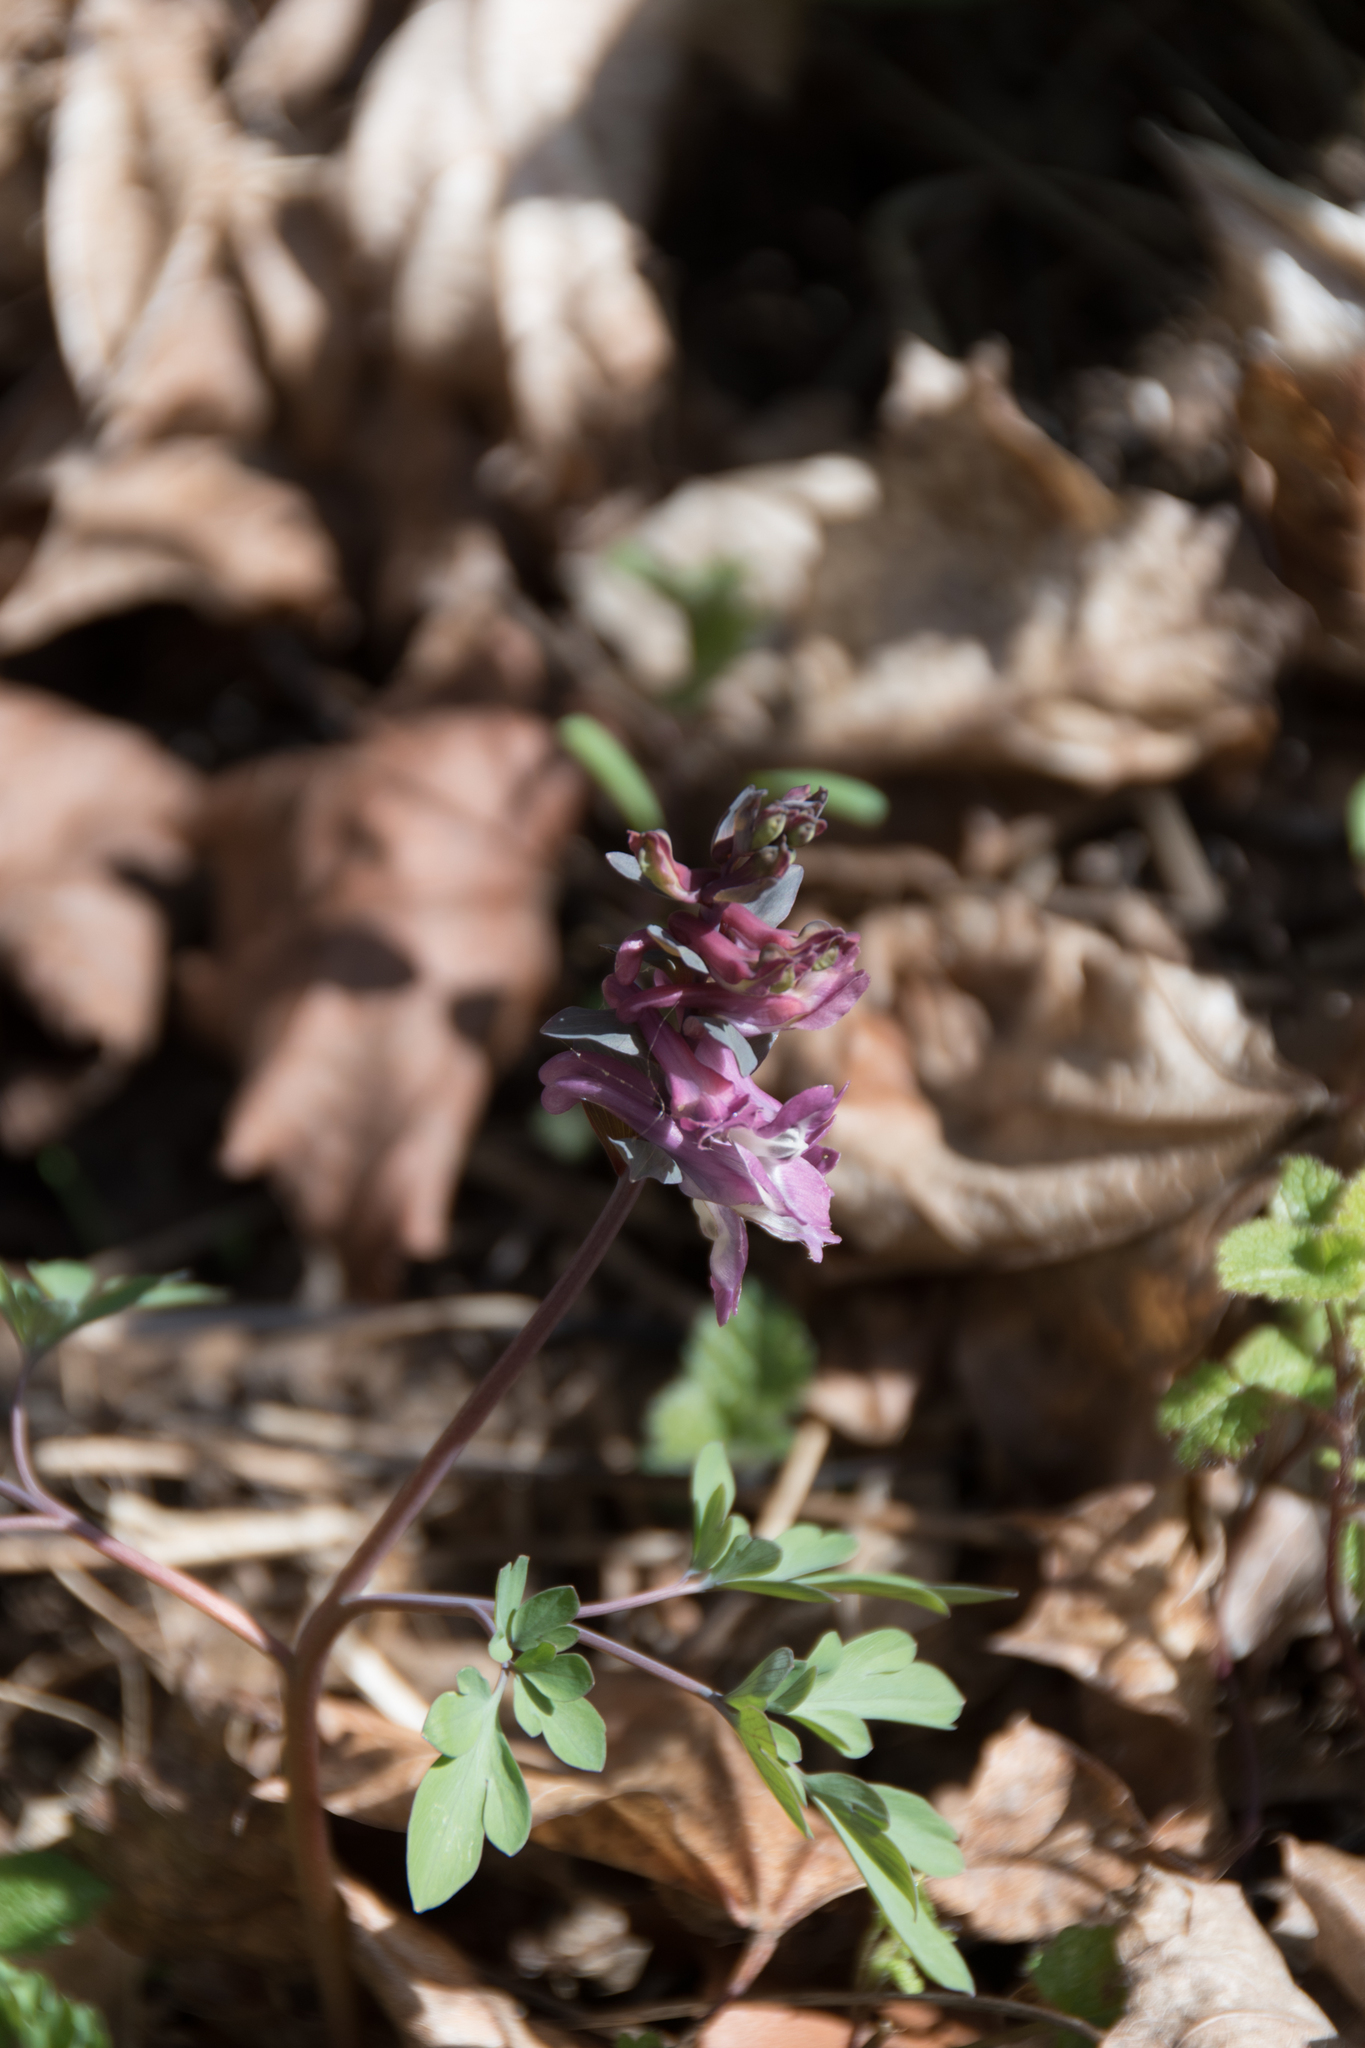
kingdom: Plantae
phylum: Tracheophyta
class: Magnoliopsida
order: Ranunculales
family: Papaveraceae
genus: Corydalis
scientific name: Corydalis cava
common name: Hollowroot
